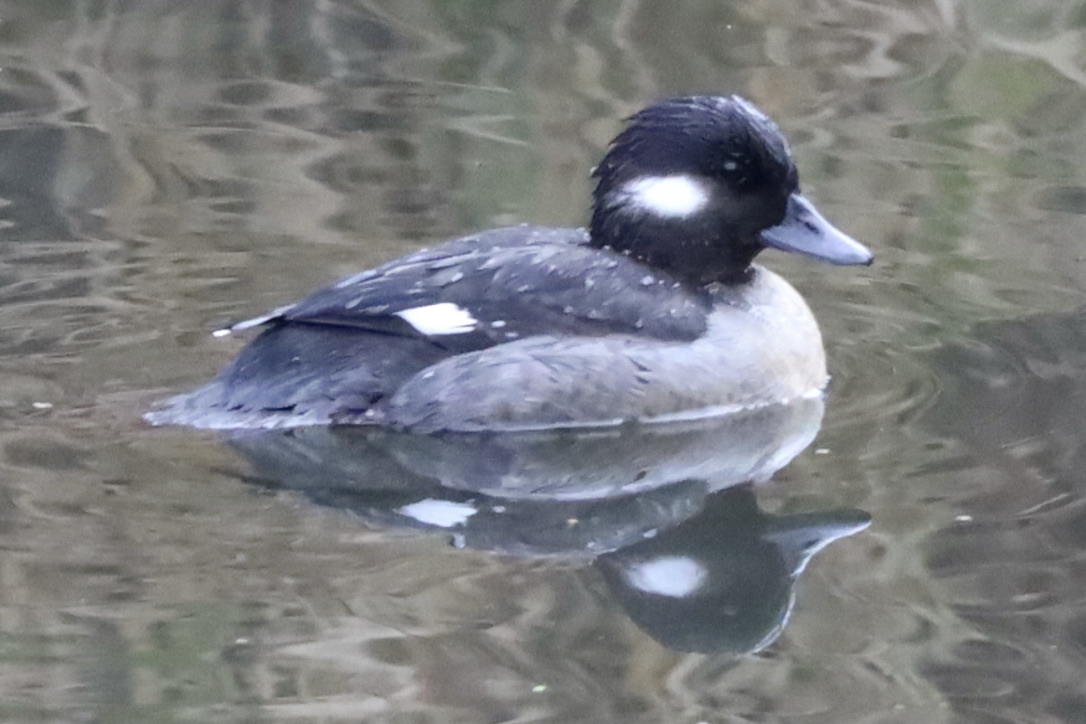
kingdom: Animalia
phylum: Chordata
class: Aves
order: Anseriformes
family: Anatidae
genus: Bucephala
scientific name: Bucephala albeola
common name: Bufflehead
